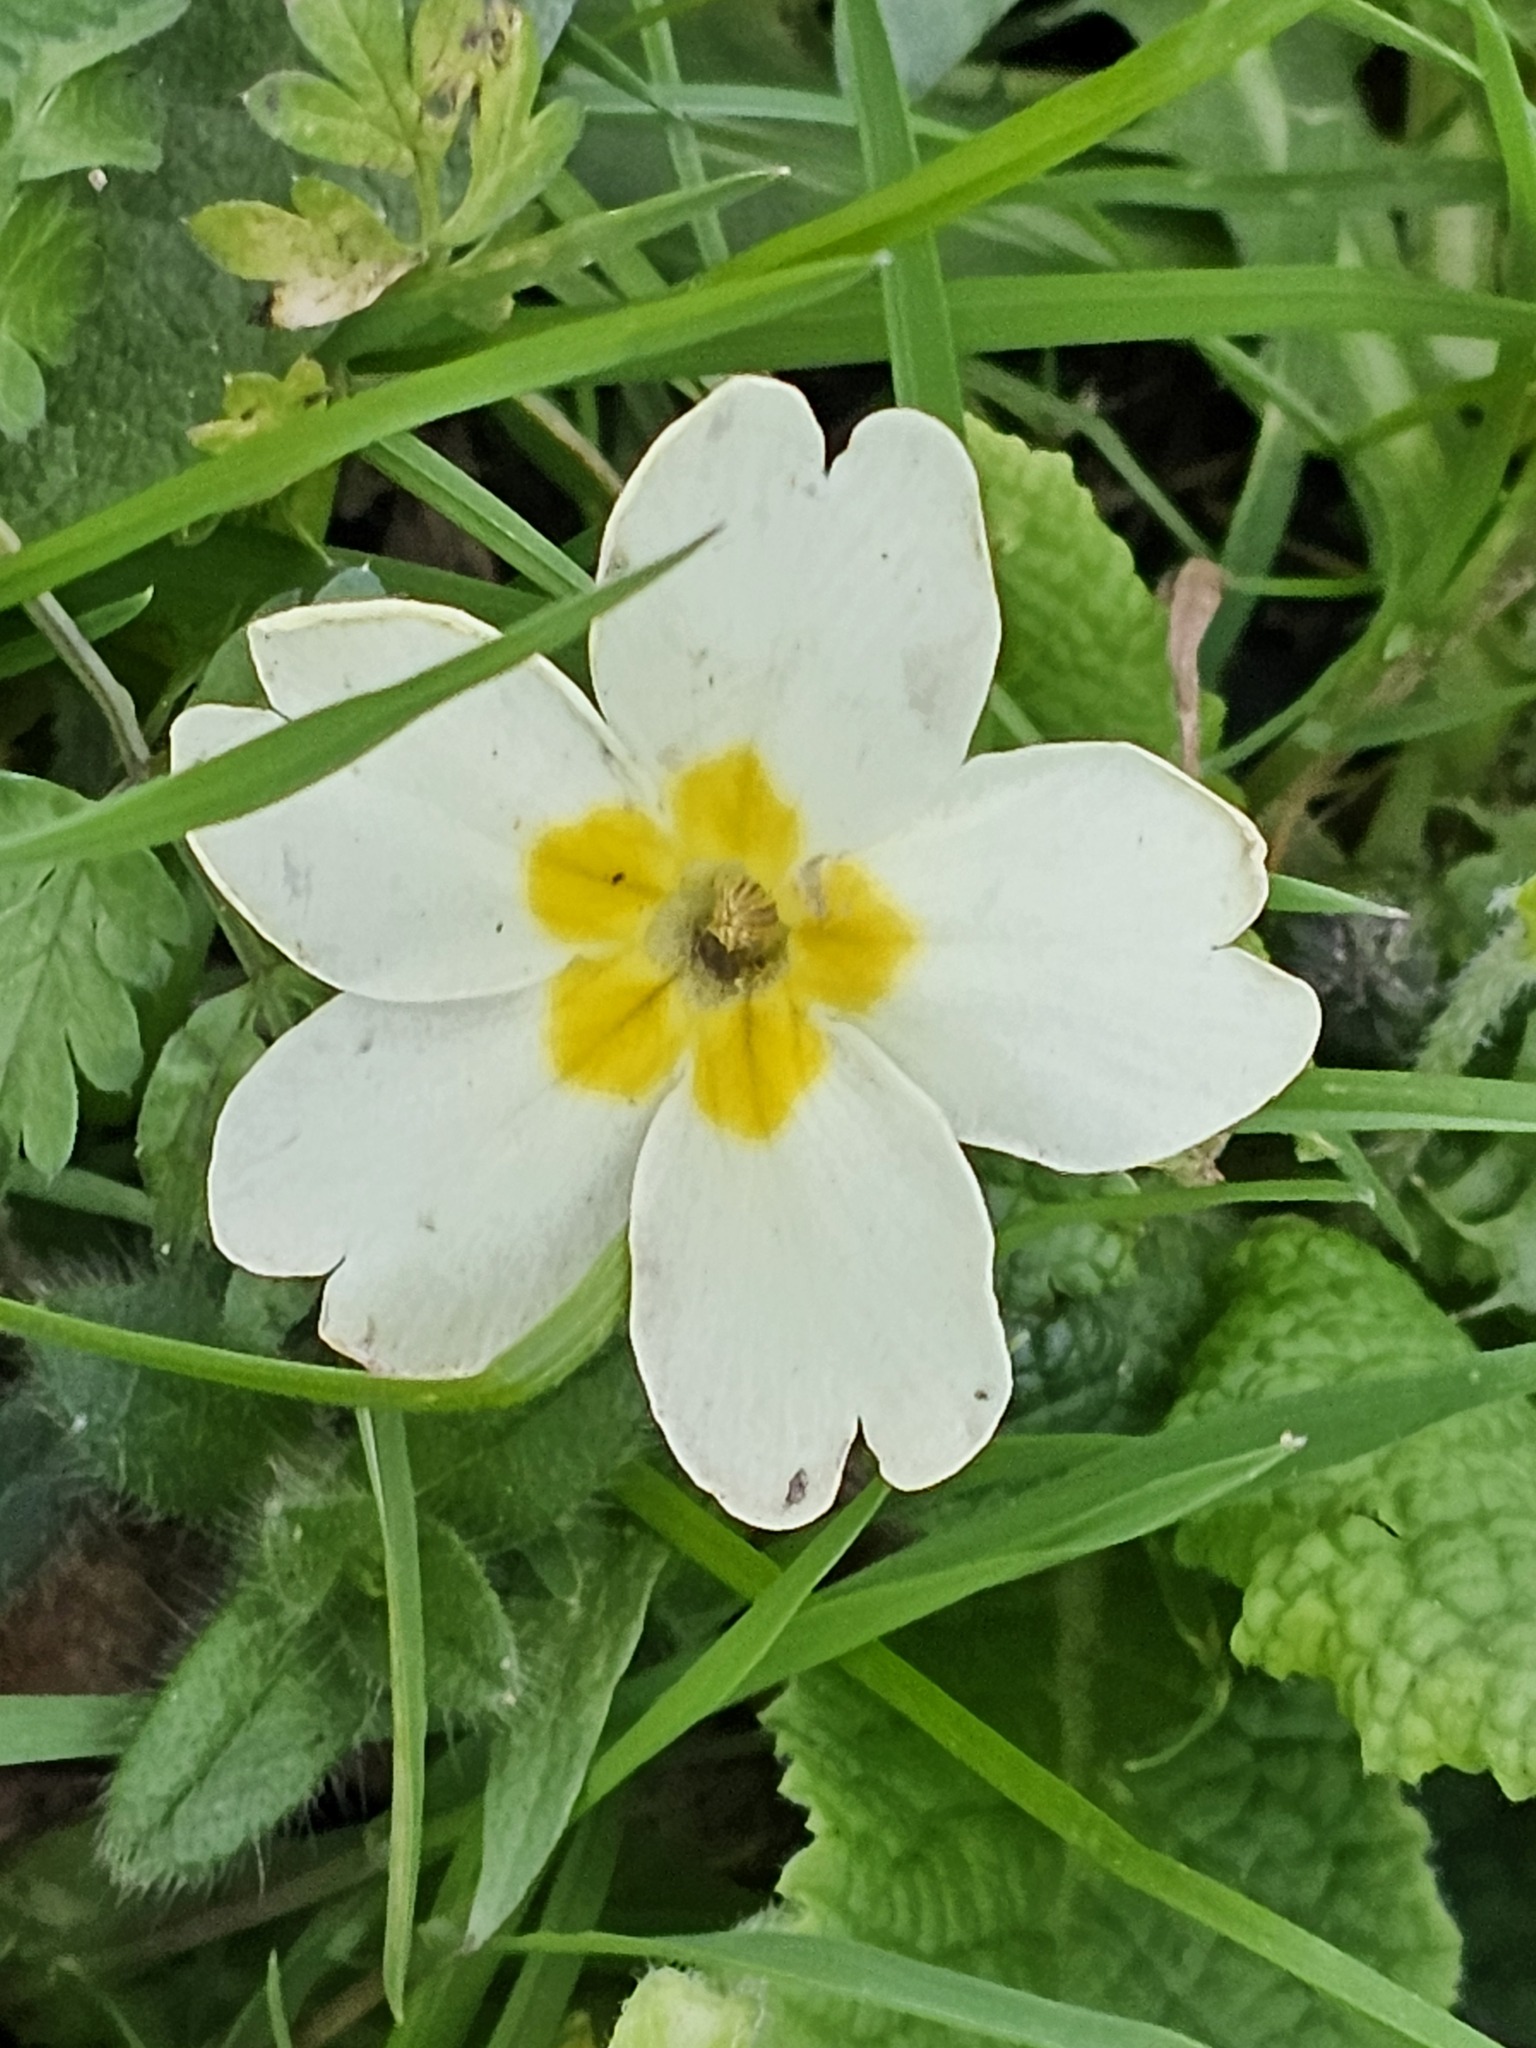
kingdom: Plantae
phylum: Tracheophyta
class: Magnoliopsida
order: Ericales
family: Primulaceae
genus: Primula
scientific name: Primula vulgaris
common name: Primrose
